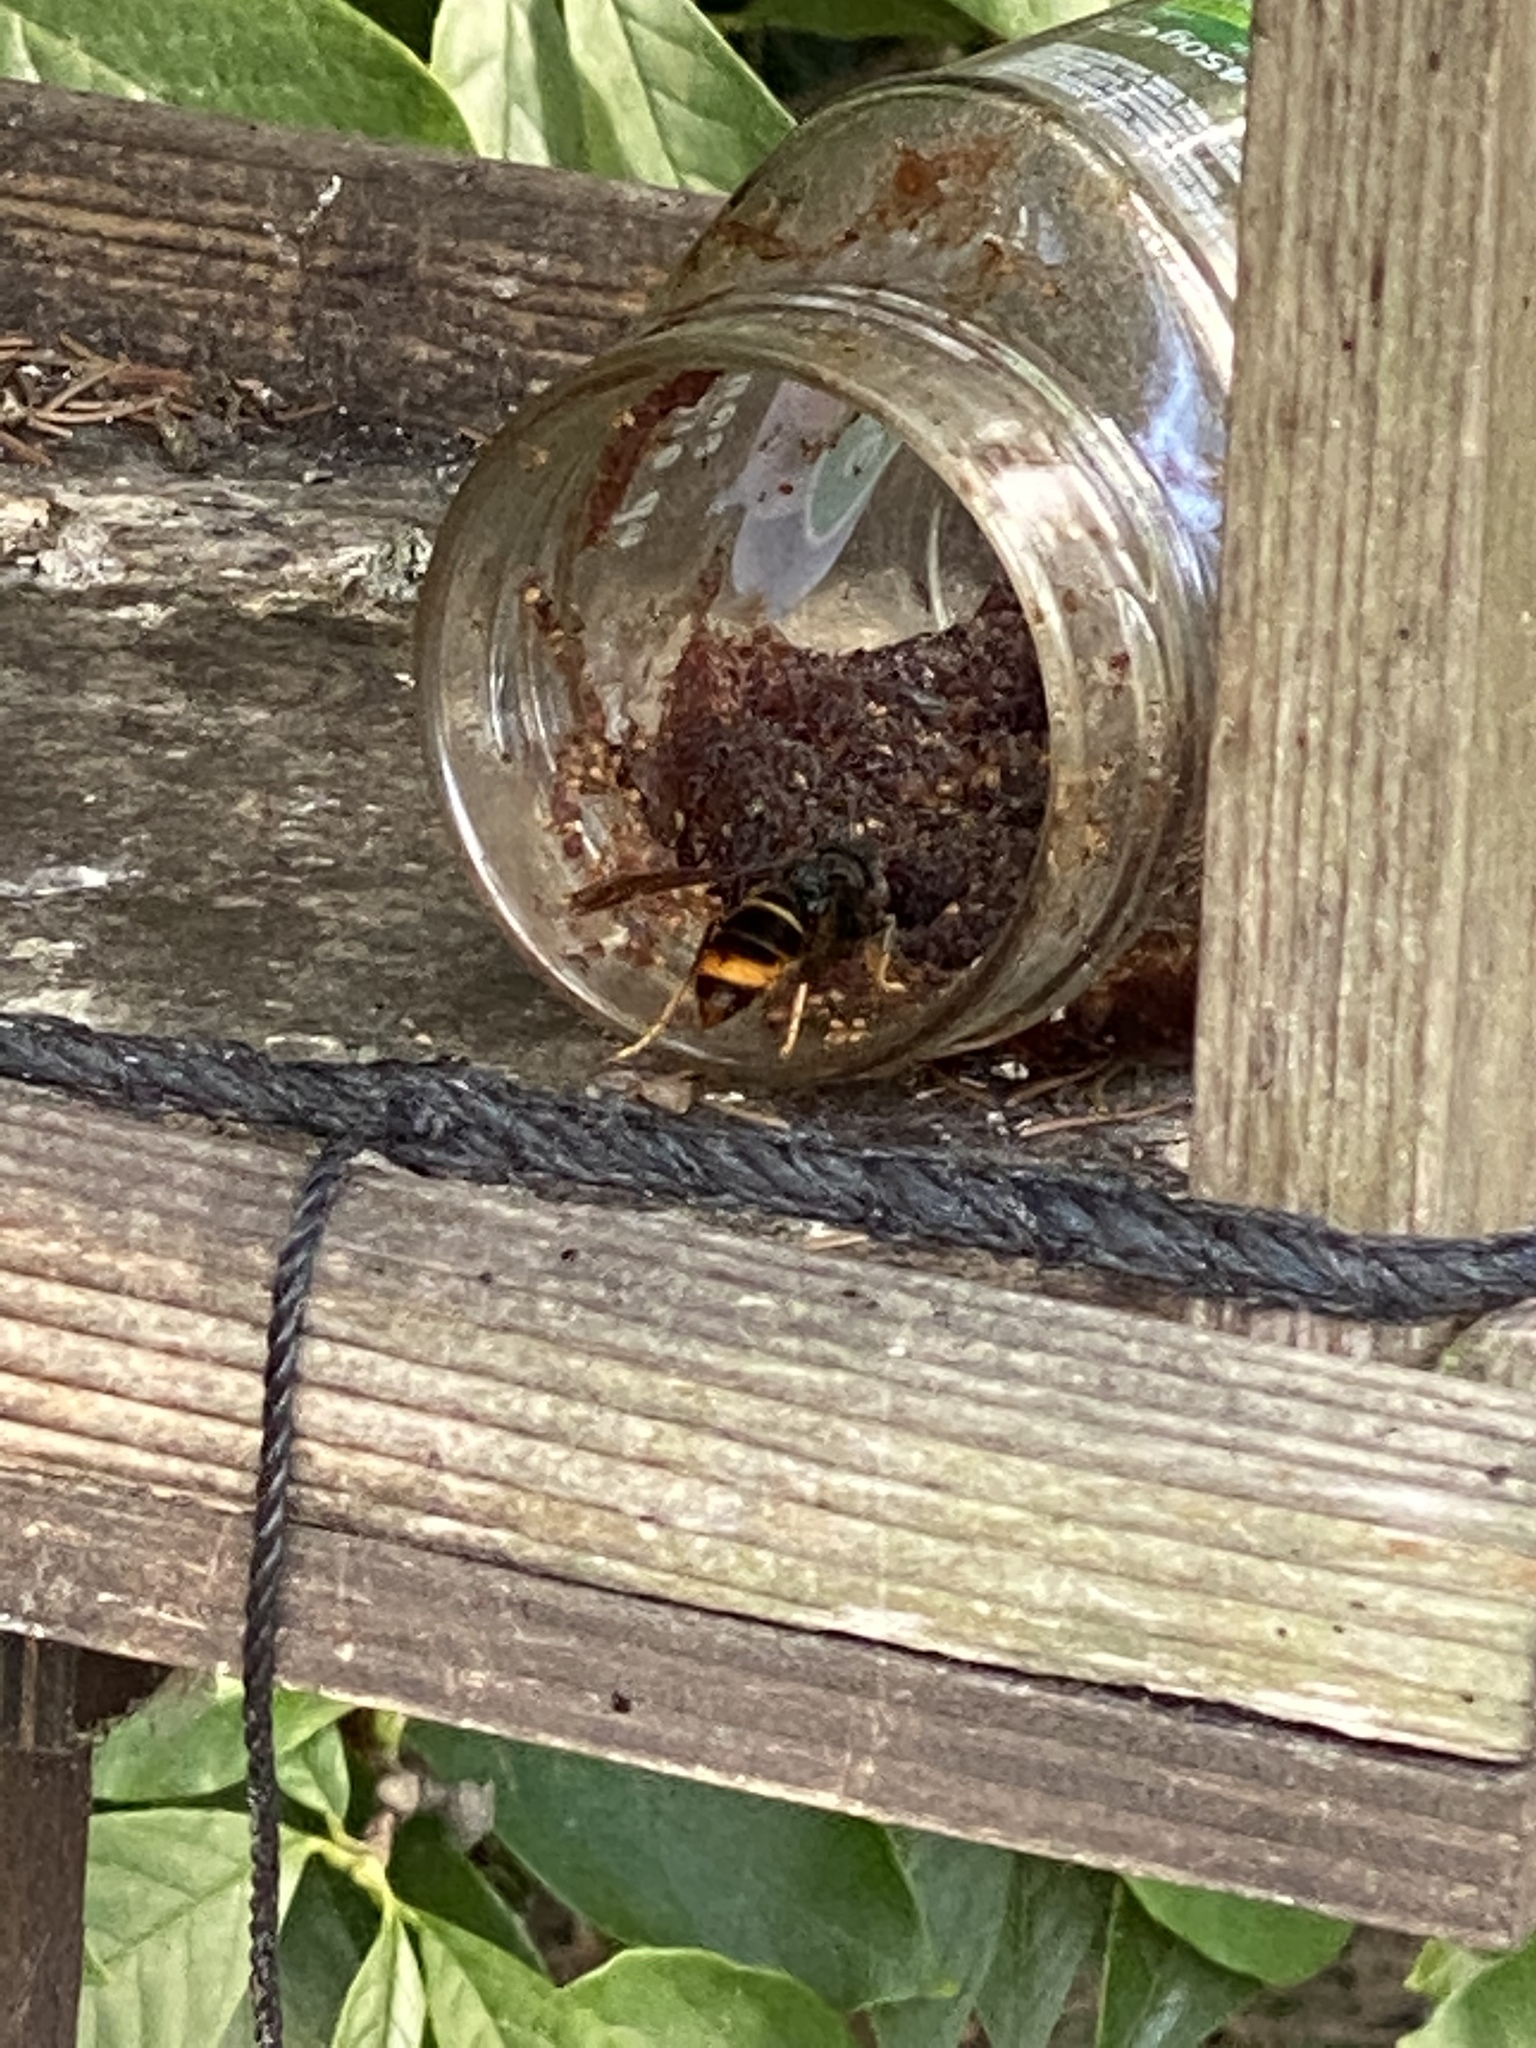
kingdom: Animalia
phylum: Arthropoda
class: Insecta
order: Hymenoptera
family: Vespidae
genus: Vespa
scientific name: Vespa velutina
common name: Asian hornet
